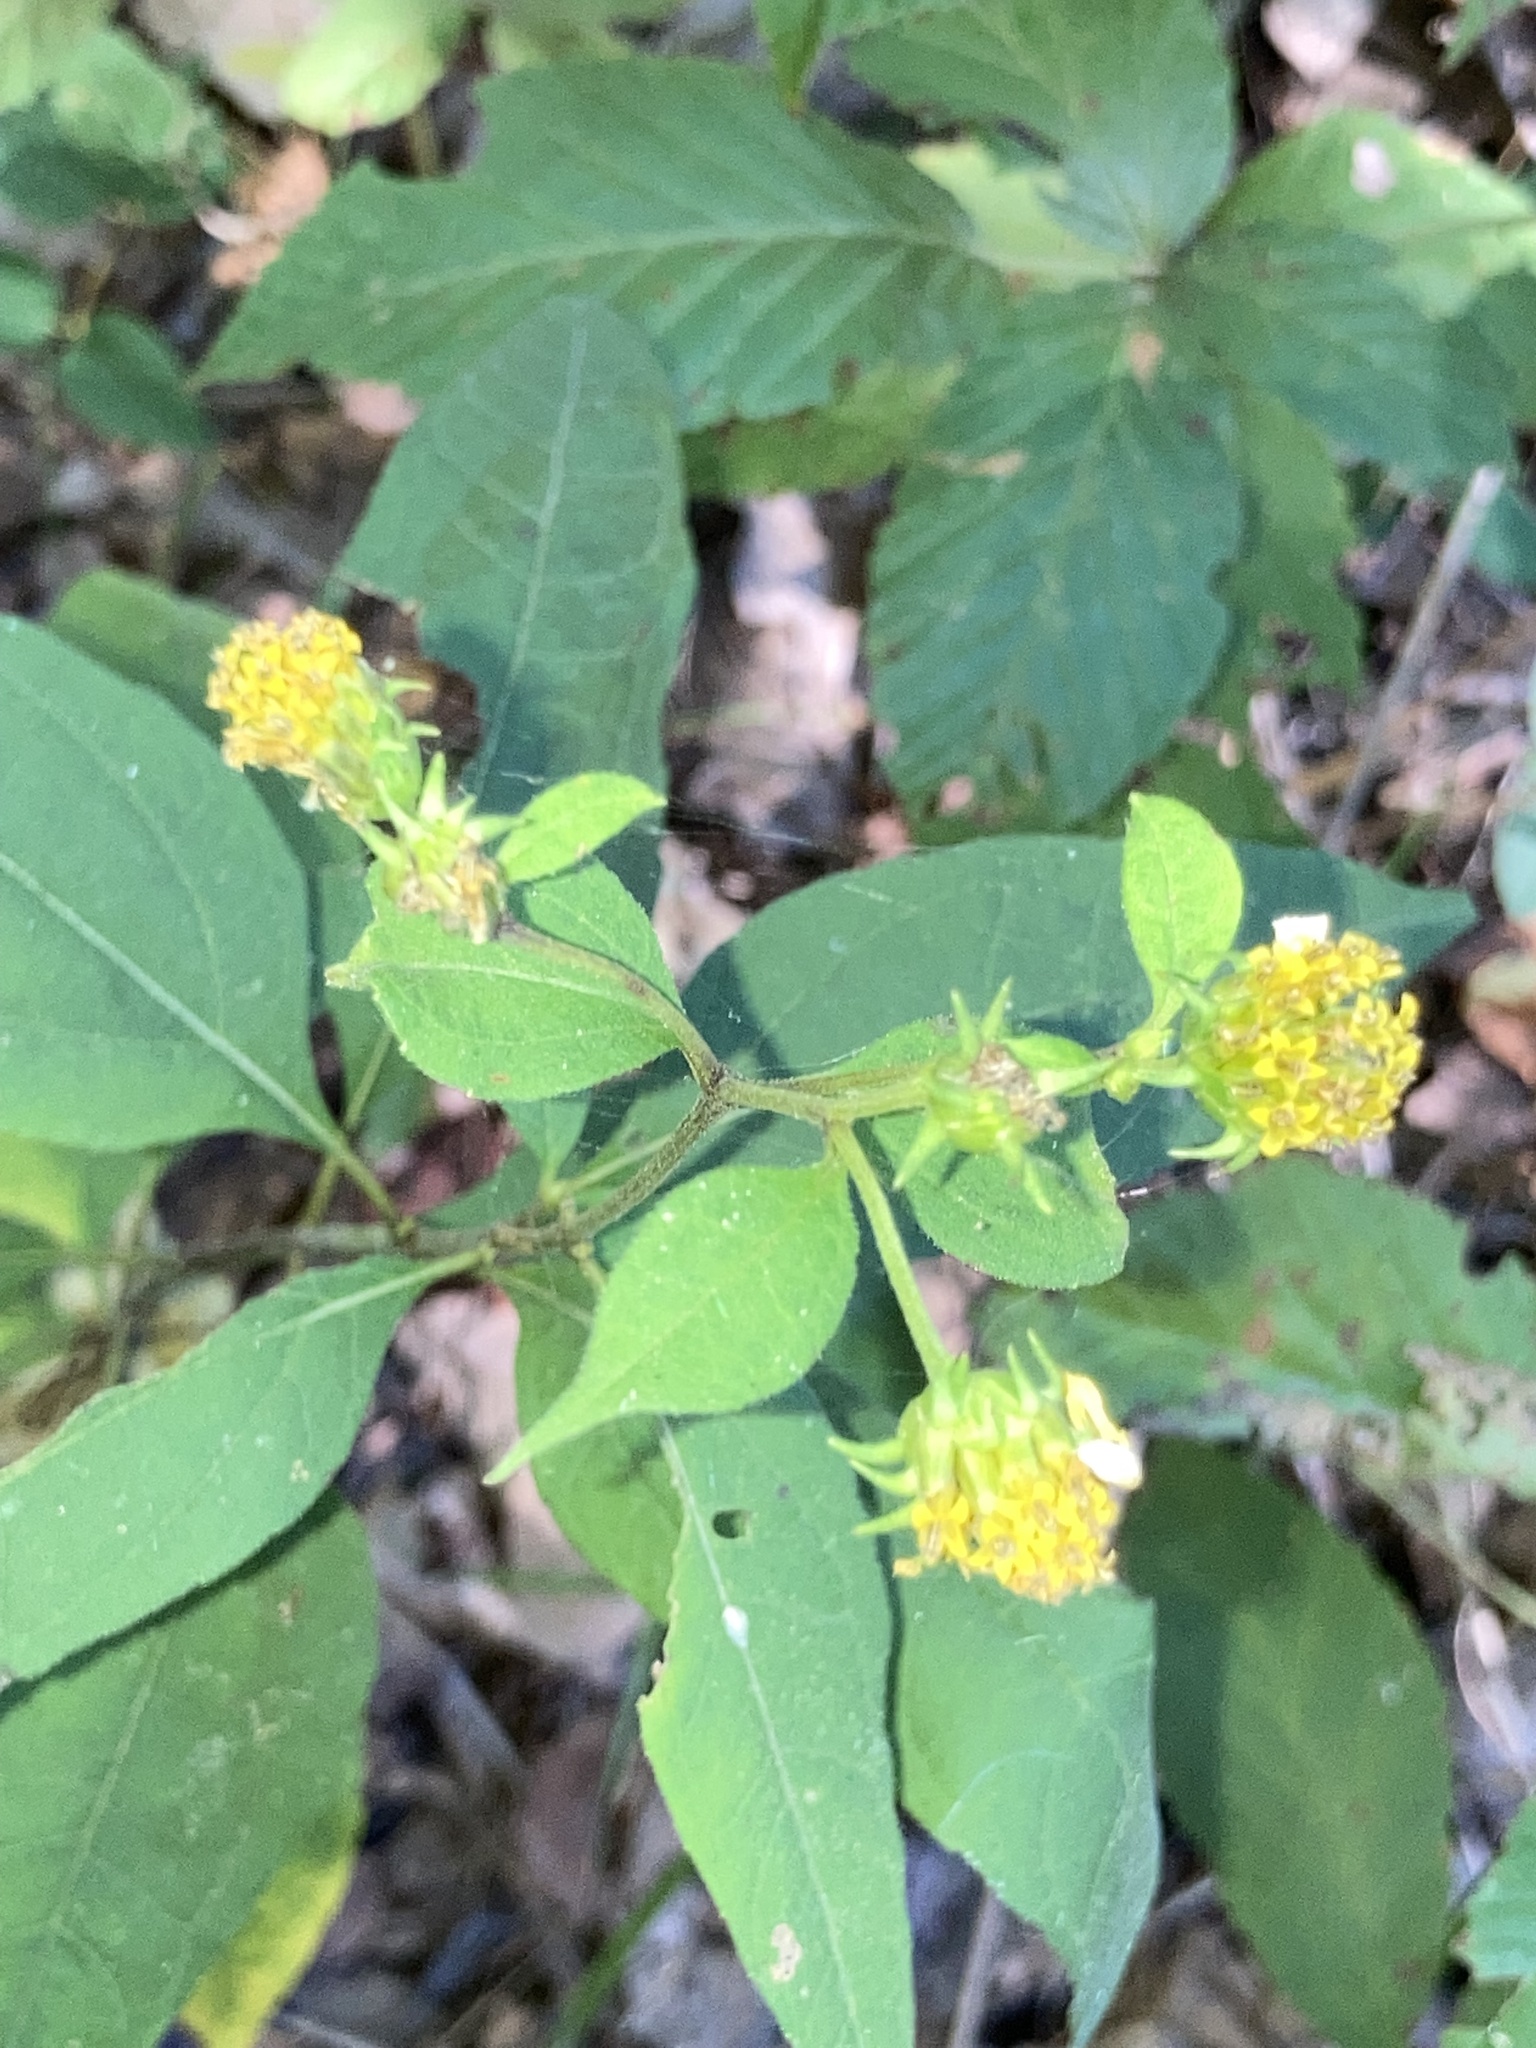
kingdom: Plantae
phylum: Tracheophyta
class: Magnoliopsida
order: Asterales
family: Asteraceae
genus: Helianthus
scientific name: Helianthus microcephalus
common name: Woodland sunflower
